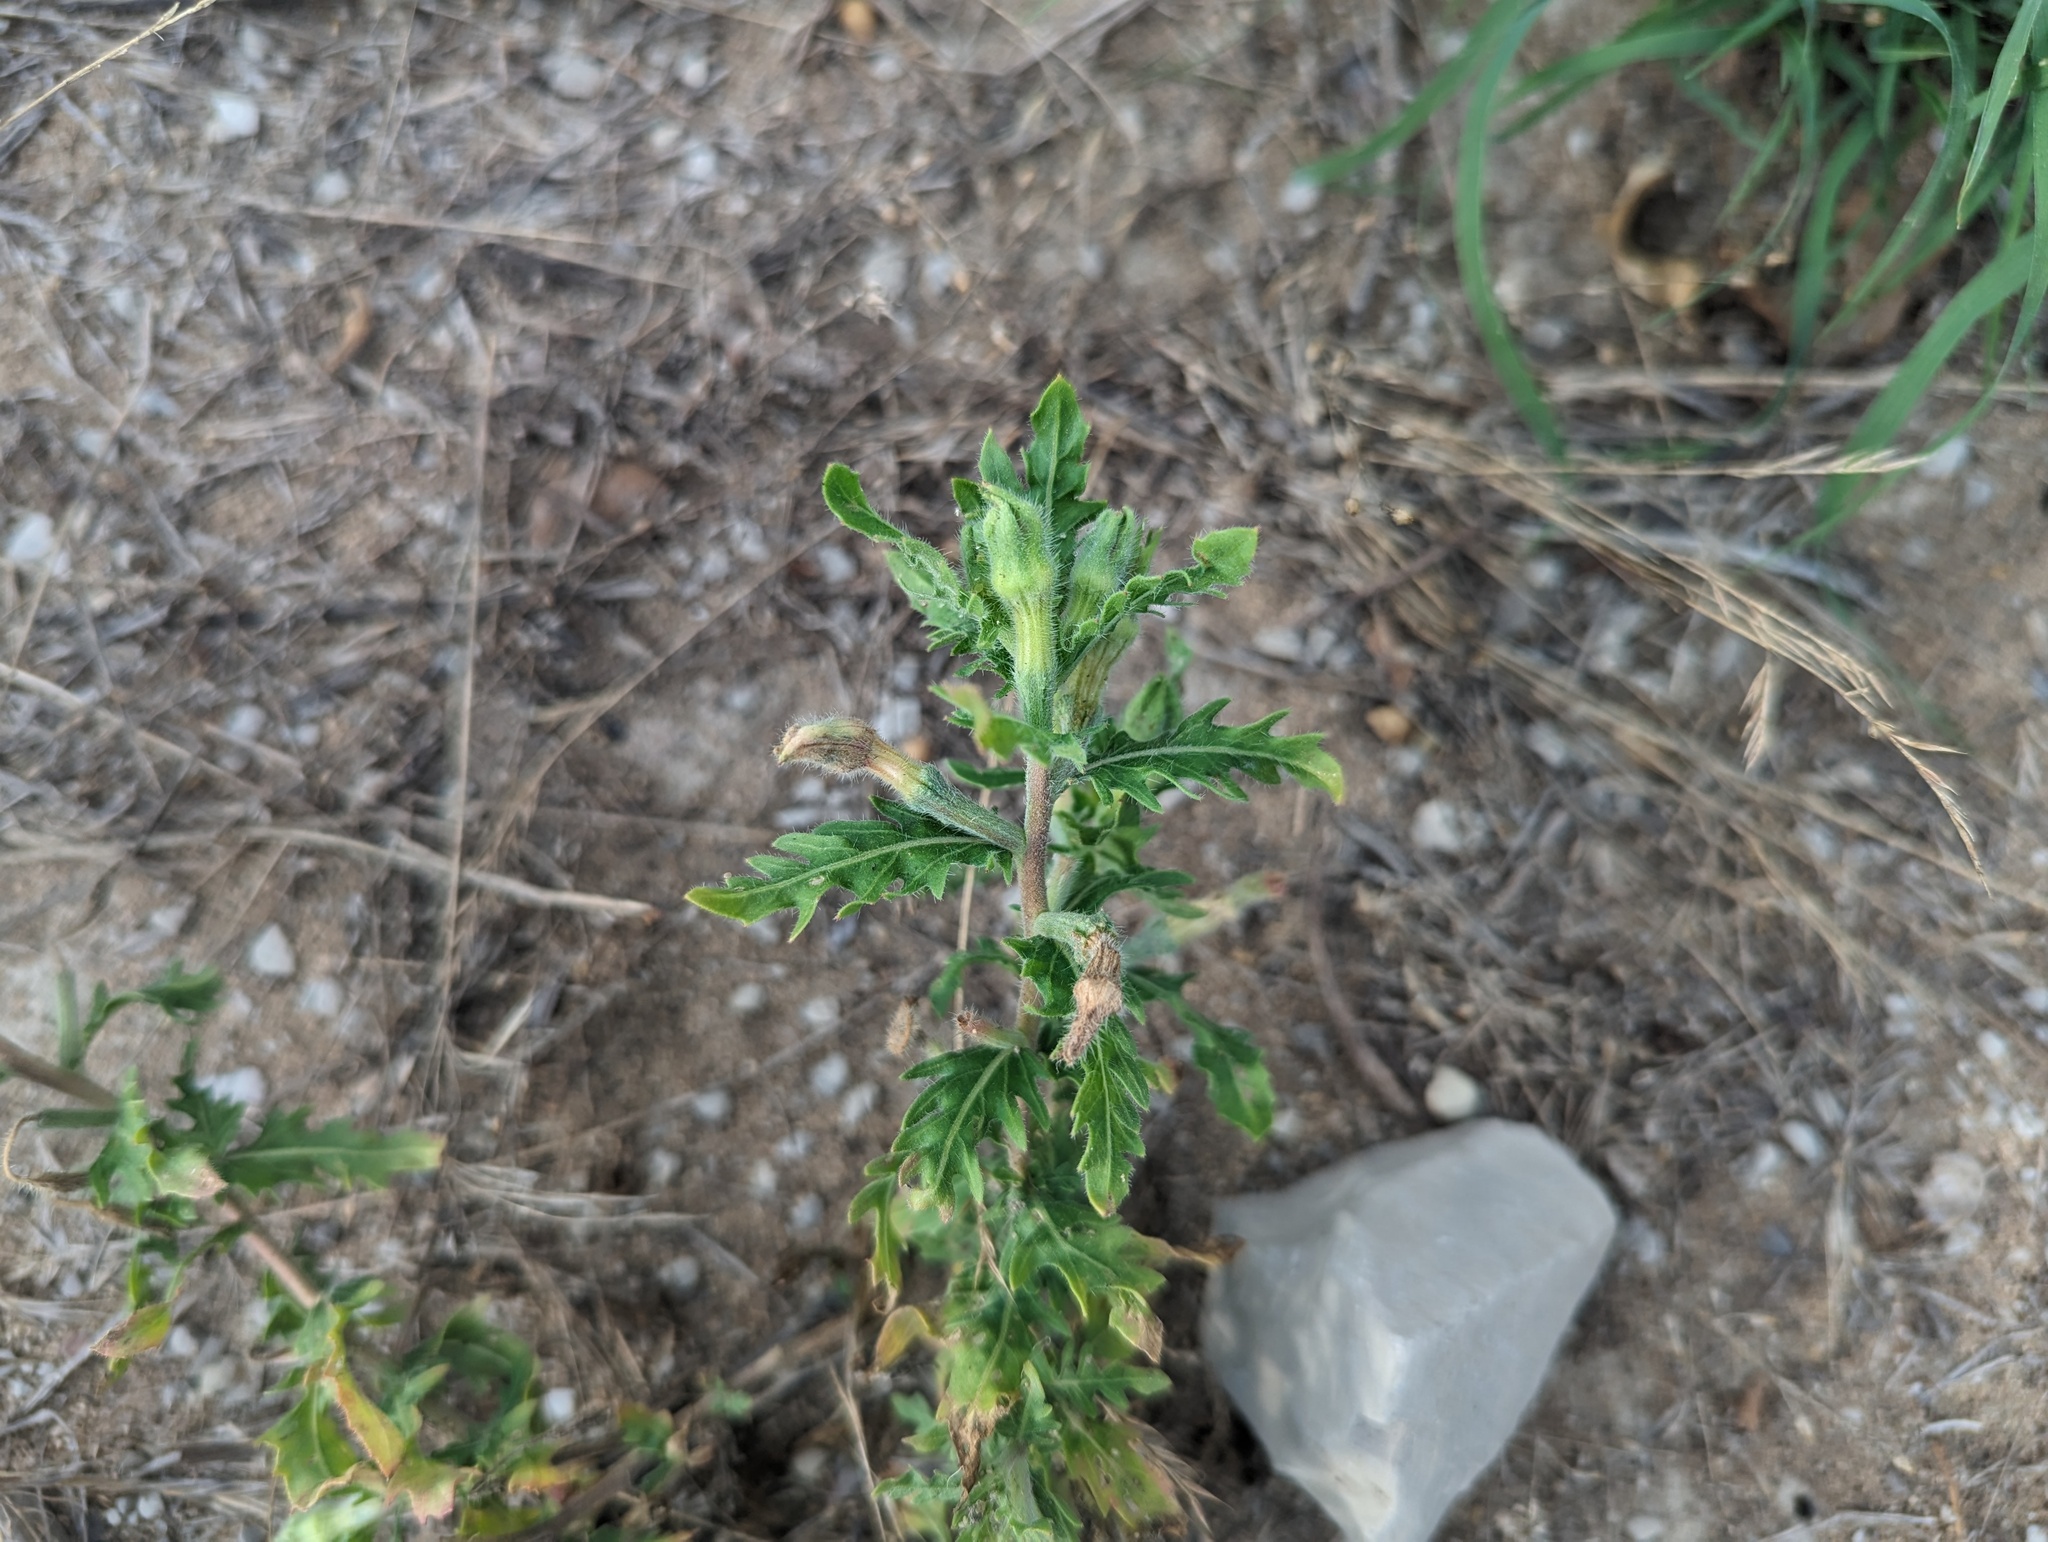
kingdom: Plantae
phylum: Tracheophyta
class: Magnoliopsida
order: Myrtales
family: Onagraceae
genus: Oenothera
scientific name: Oenothera laciniata
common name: Cut-leaved evening-primrose
